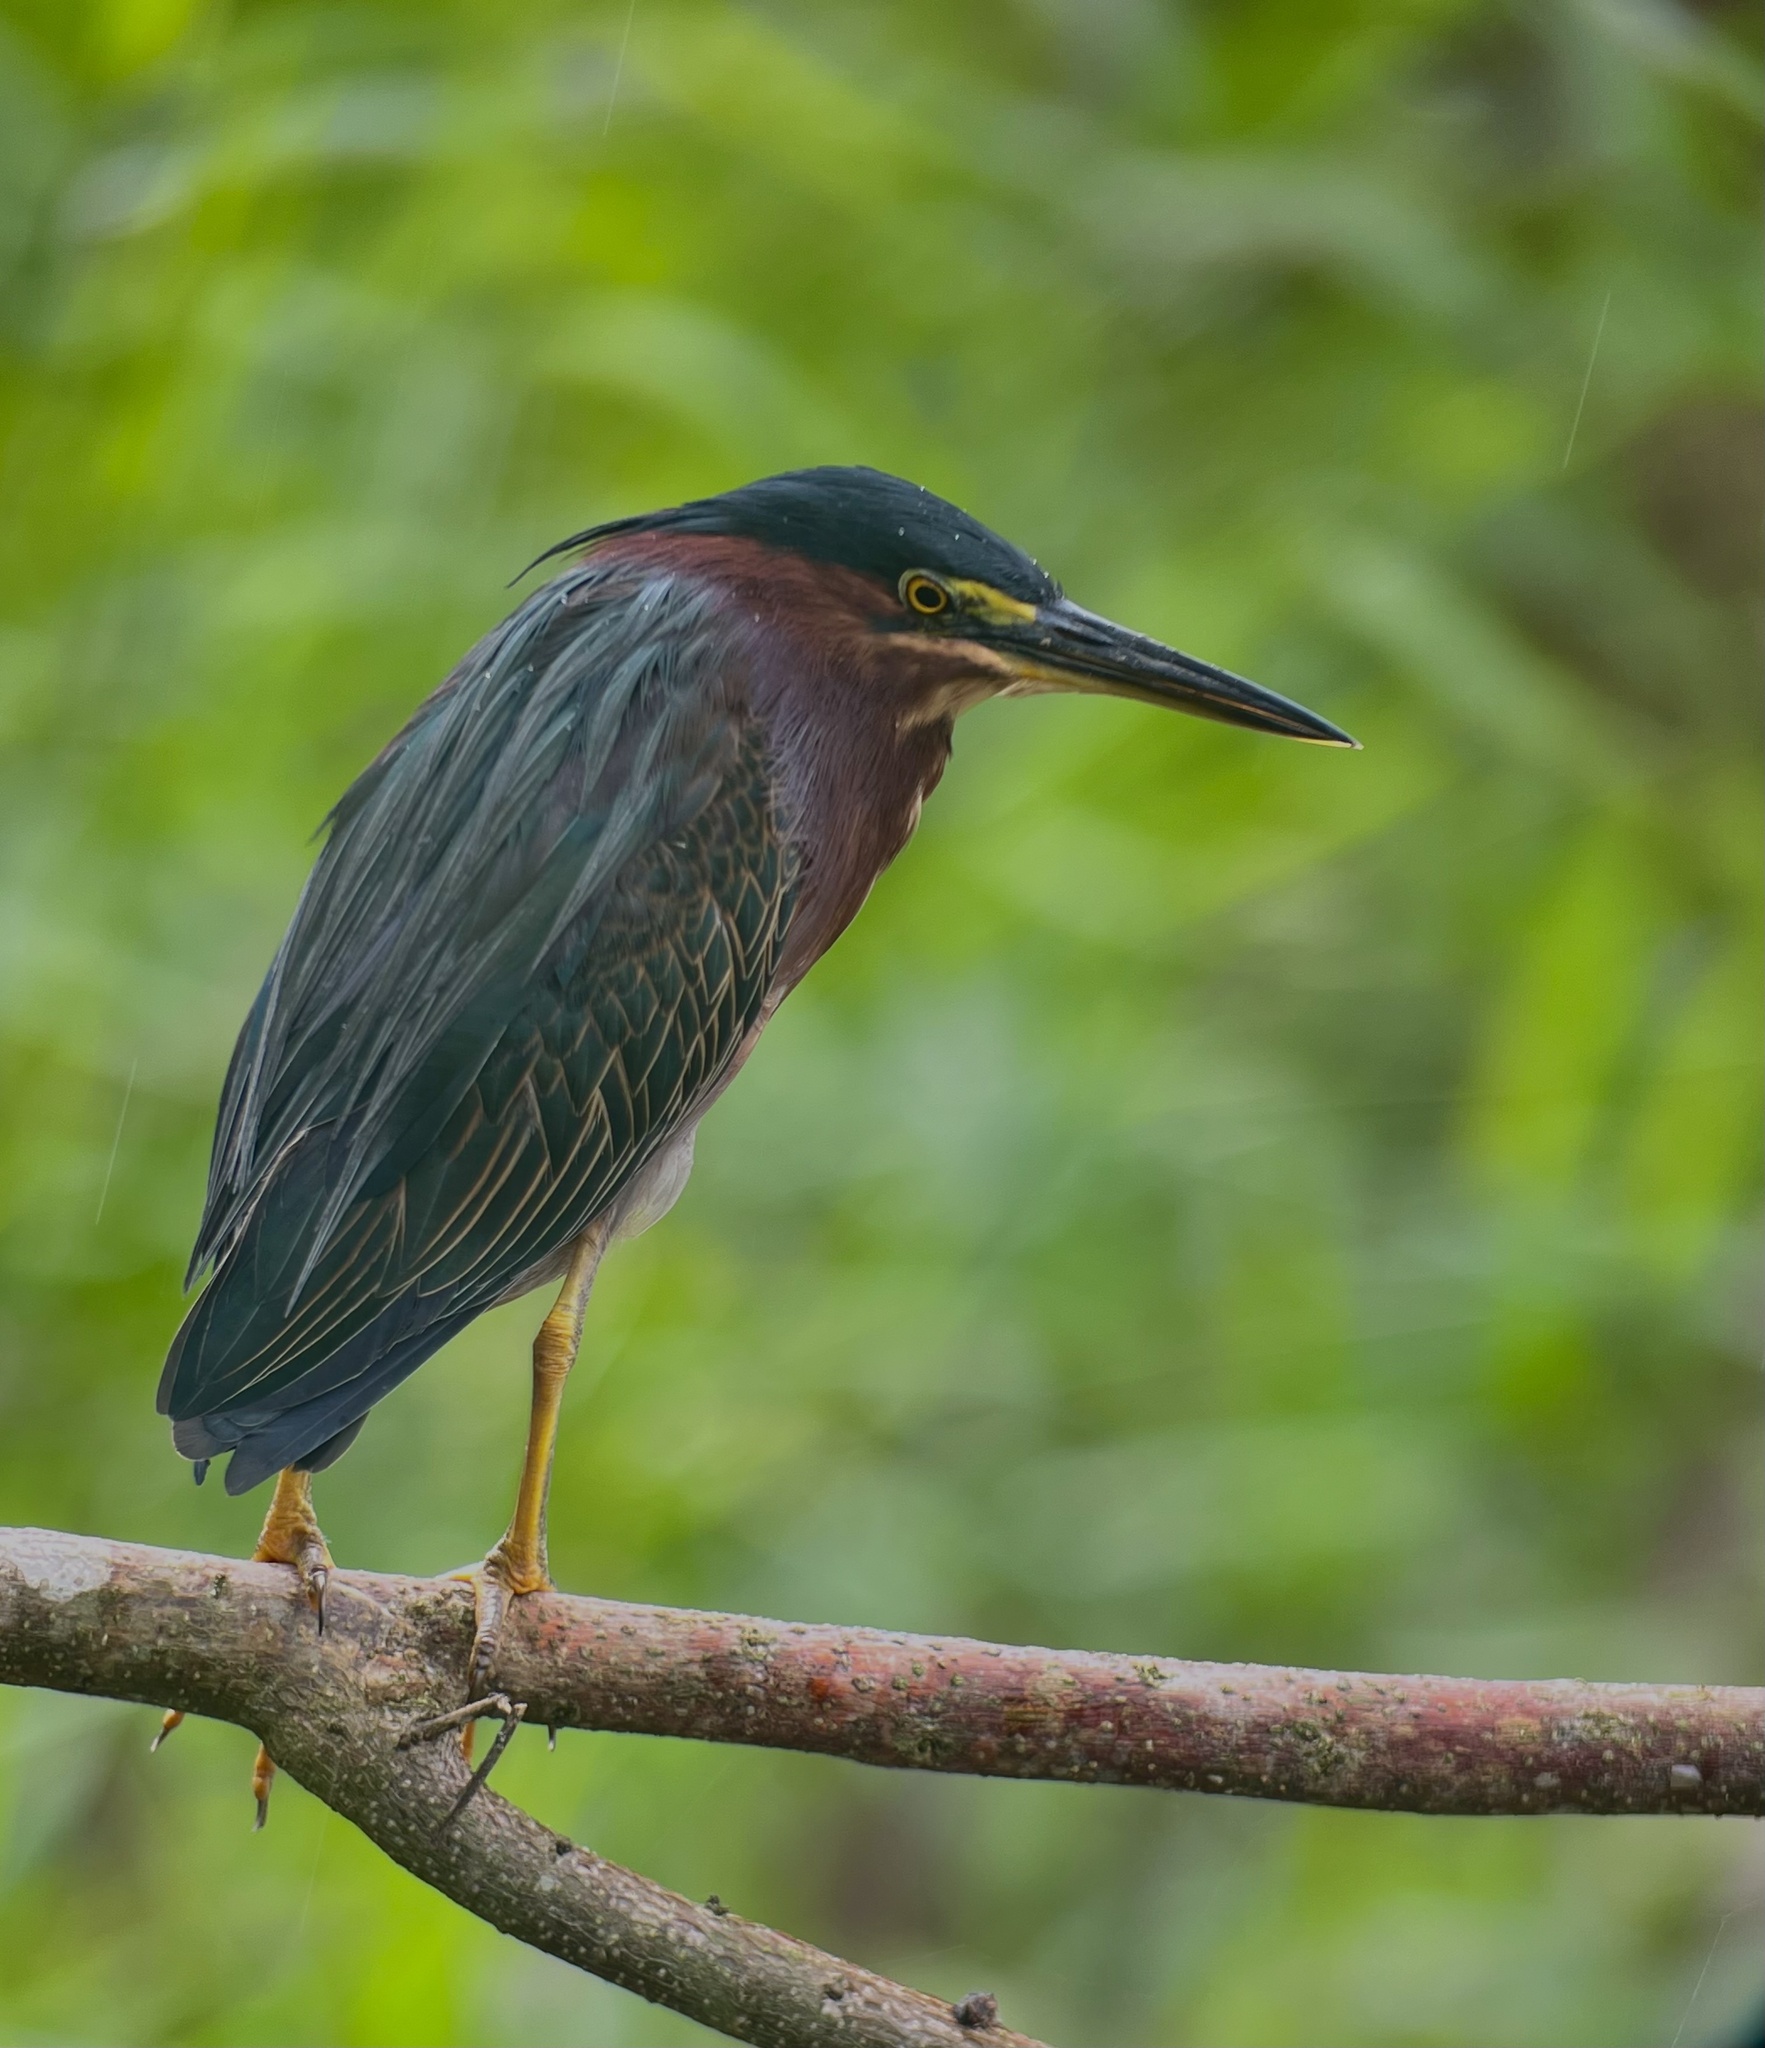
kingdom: Animalia
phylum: Chordata
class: Aves
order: Pelecaniformes
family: Ardeidae
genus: Butorides
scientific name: Butorides virescens
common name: Green heron
